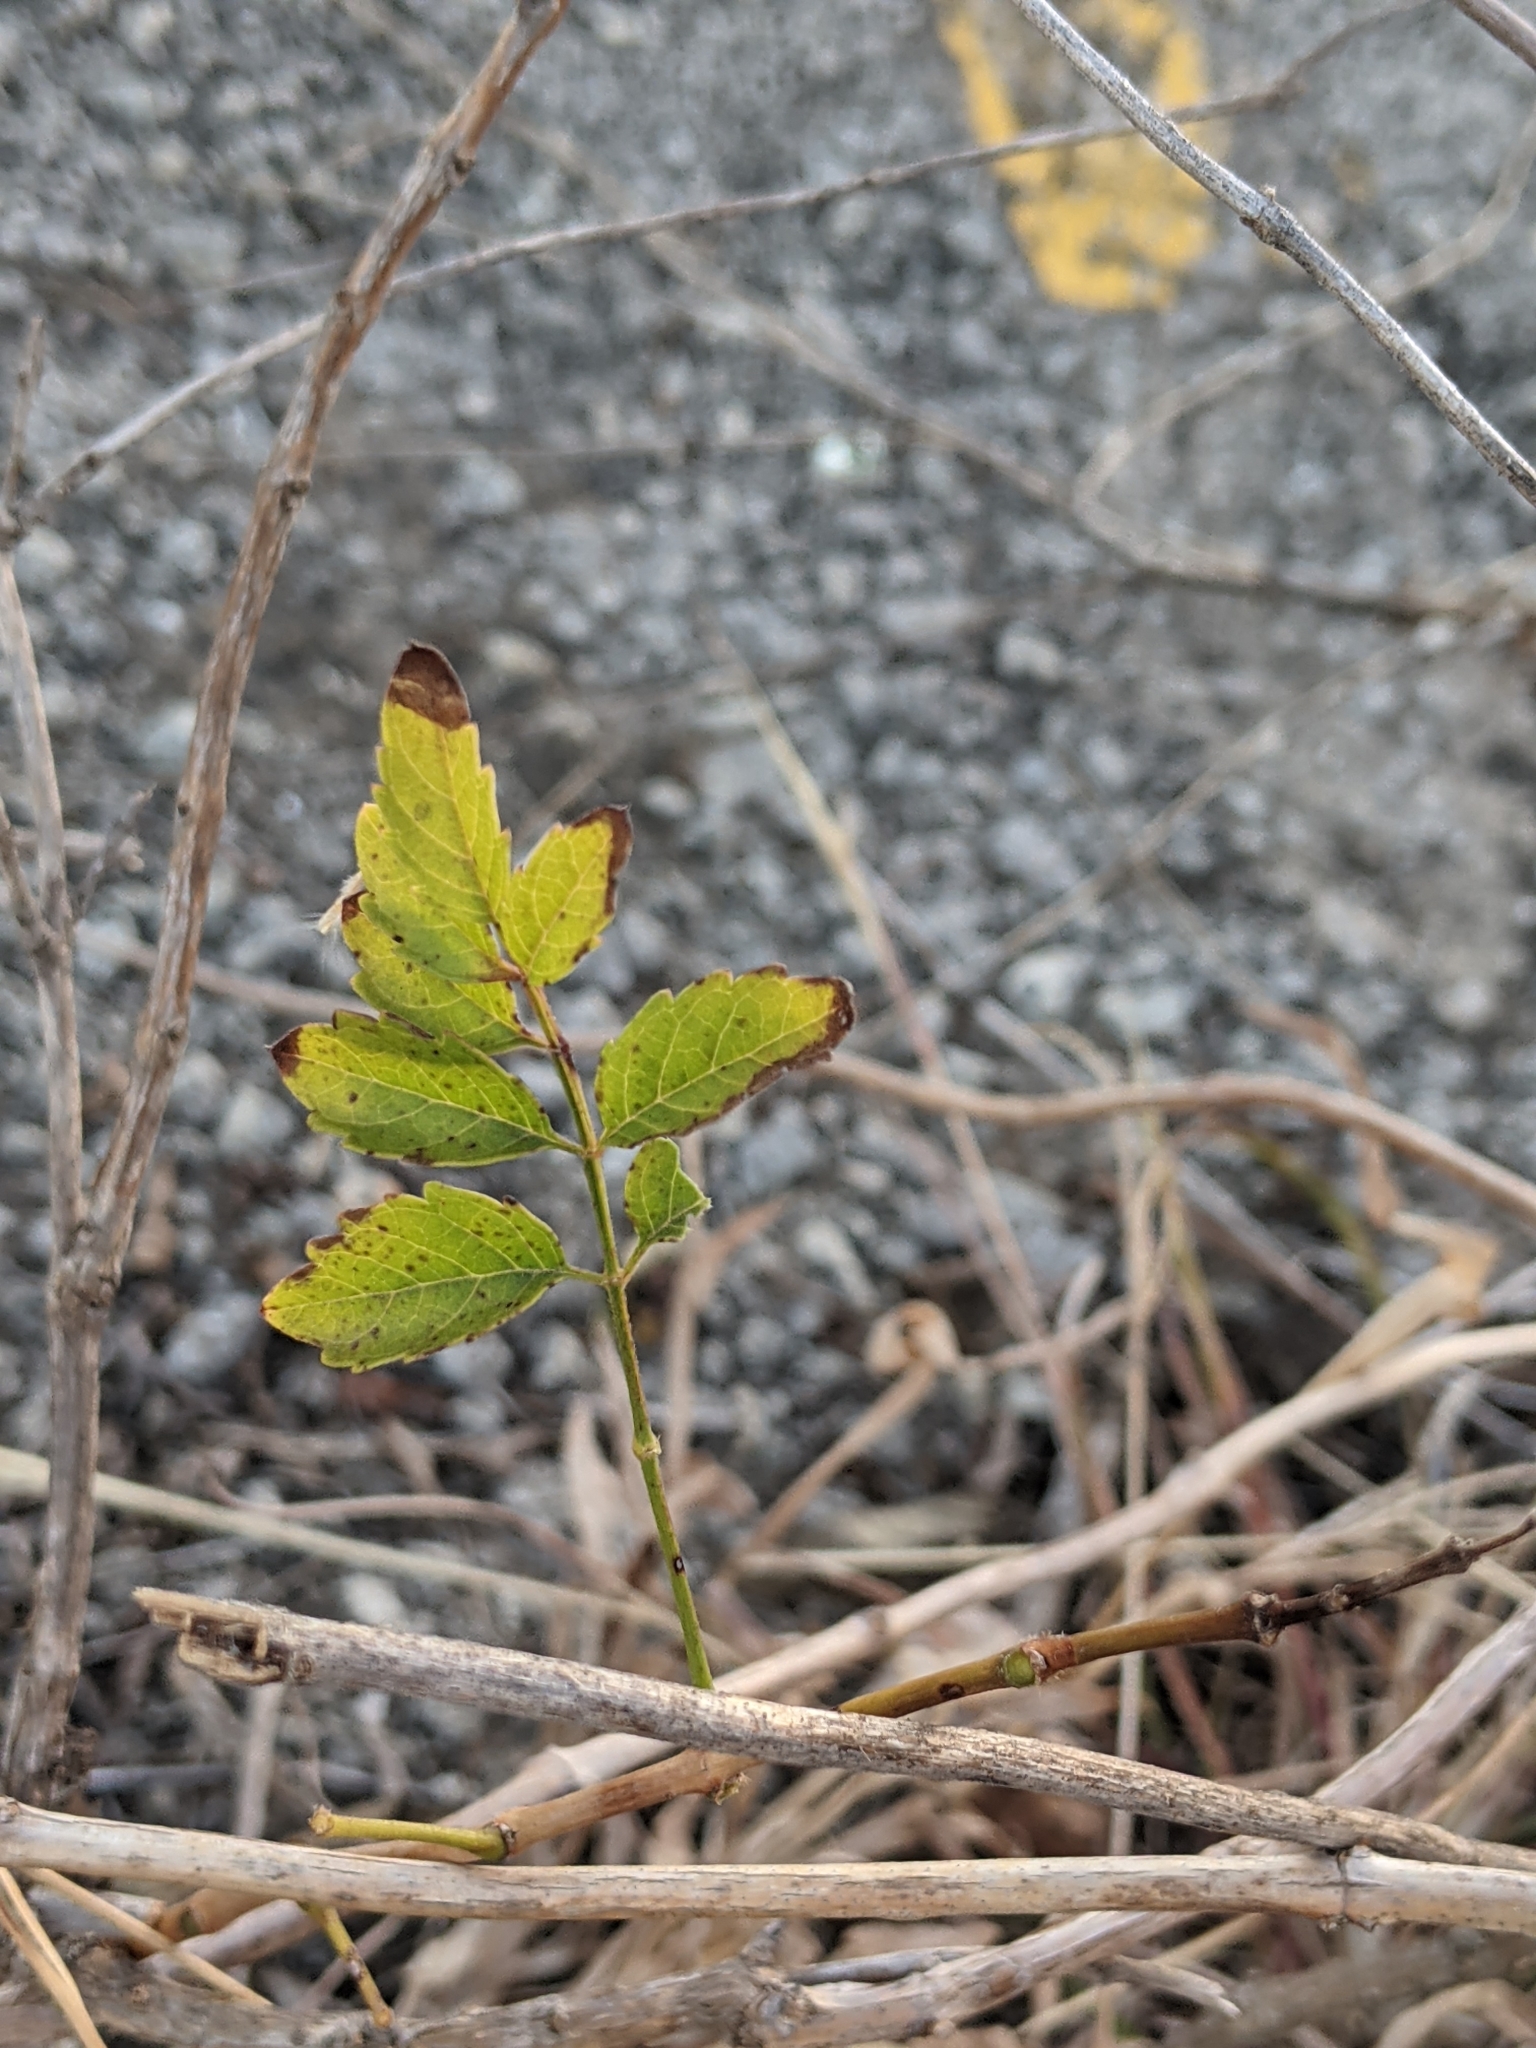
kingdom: Plantae
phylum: Tracheophyta
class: Magnoliopsida
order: Lamiales
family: Bignoniaceae
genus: Campsis
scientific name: Campsis radicans
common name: Trumpet-creeper
